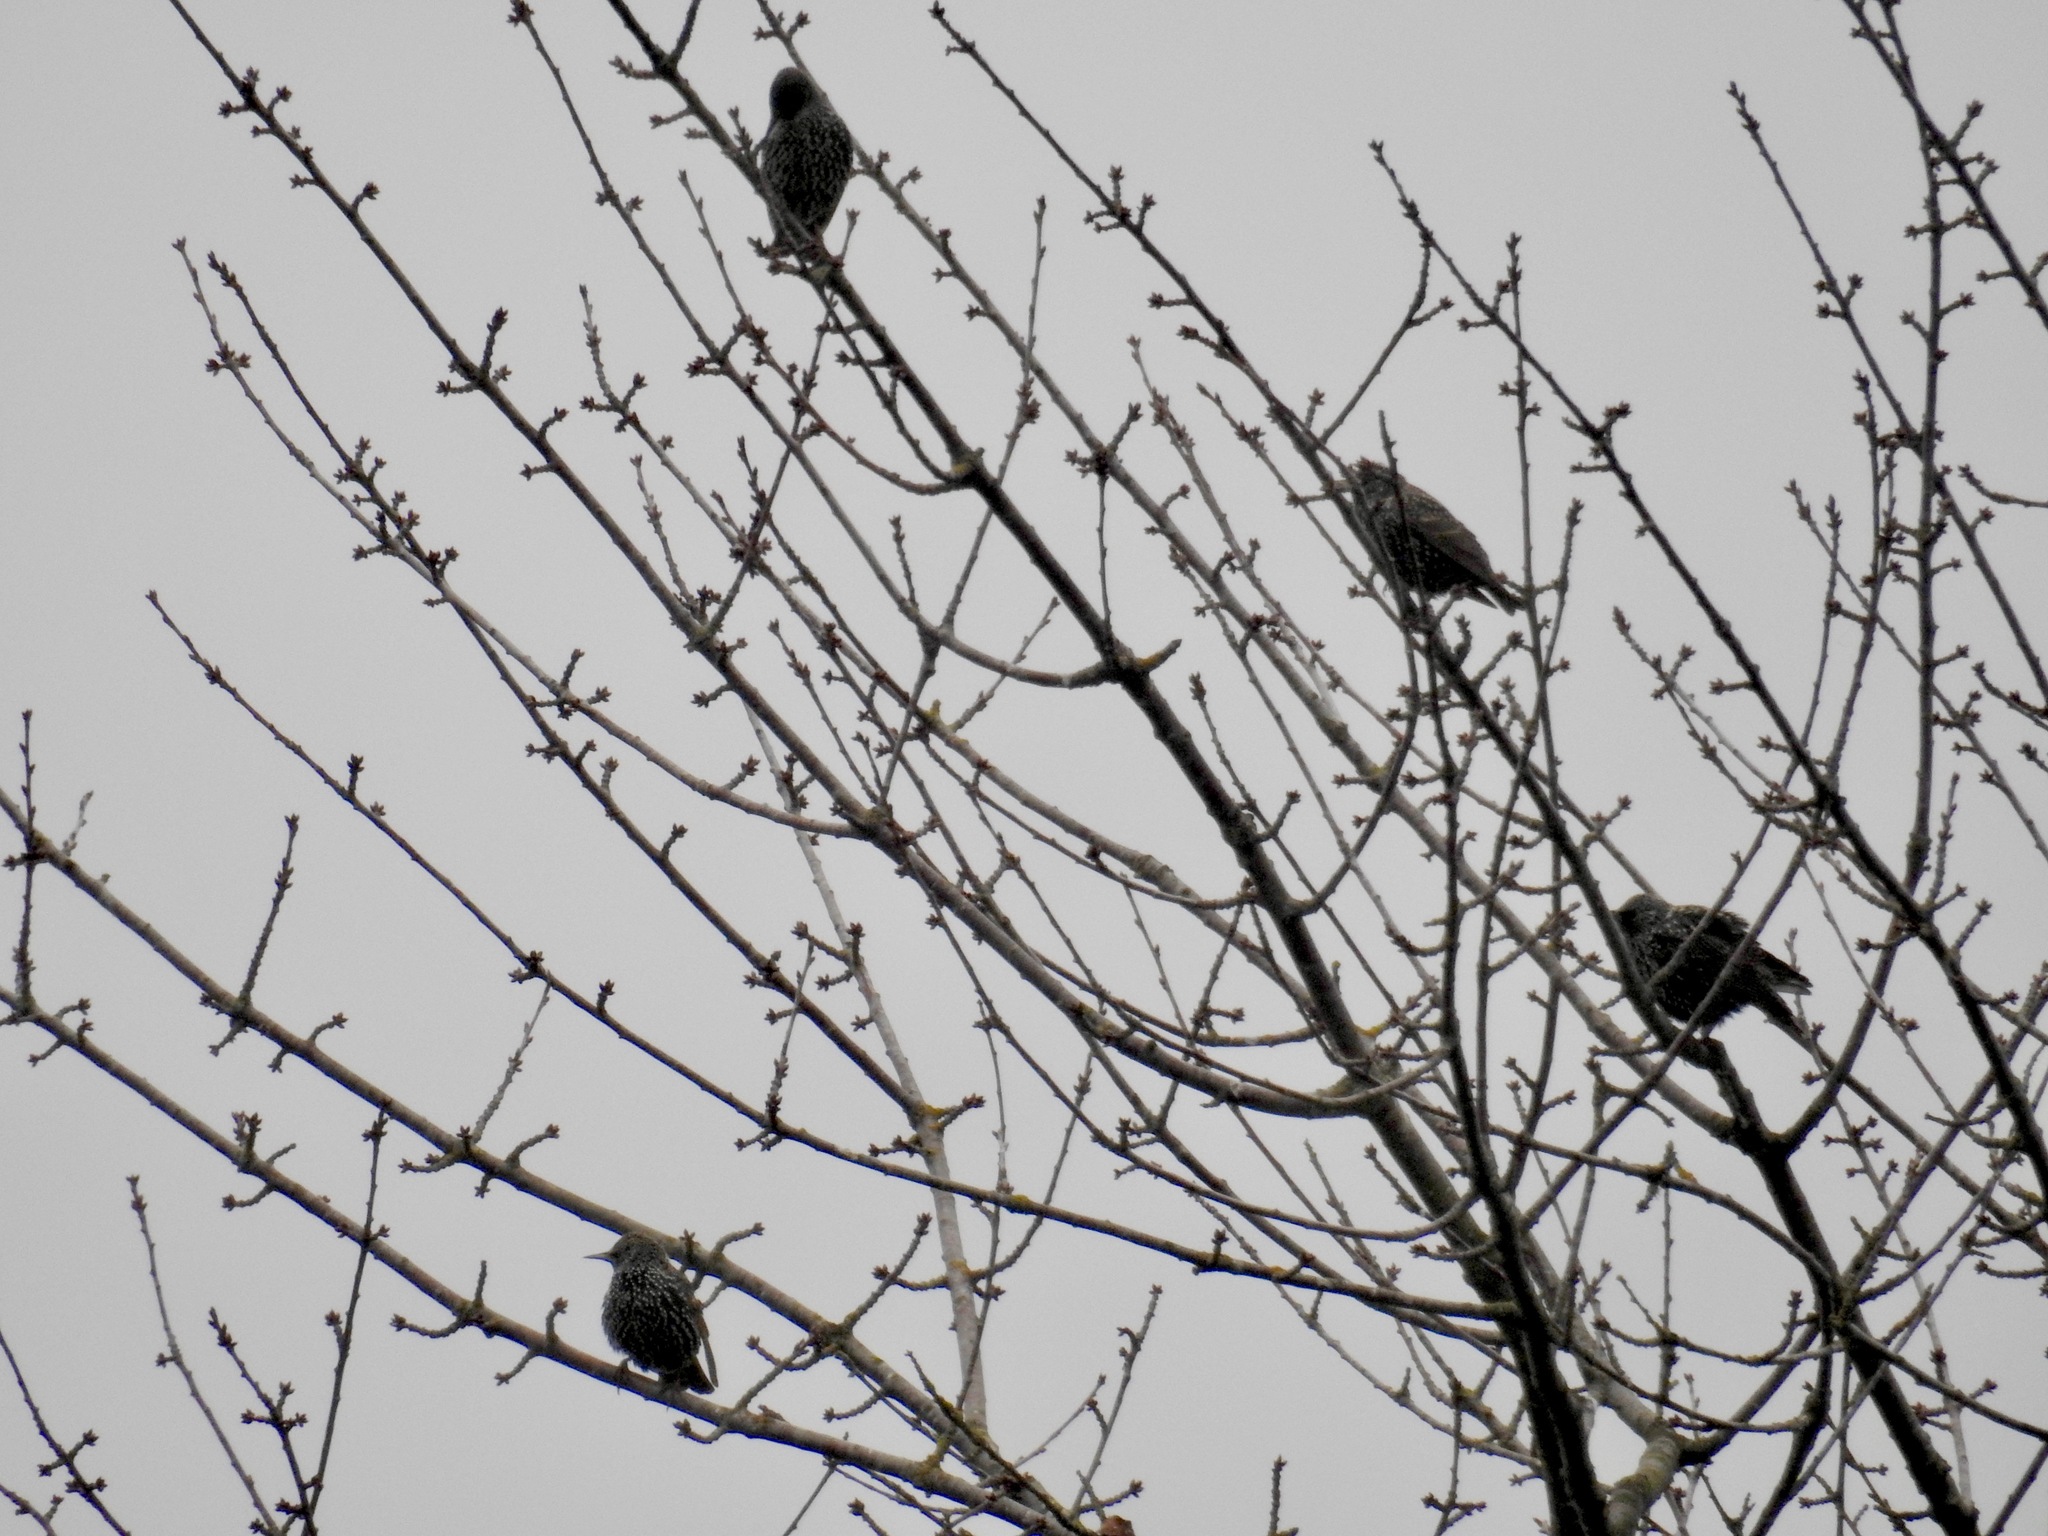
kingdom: Animalia
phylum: Chordata
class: Aves
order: Passeriformes
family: Sturnidae
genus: Sturnus
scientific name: Sturnus vulgaris
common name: Common starling
